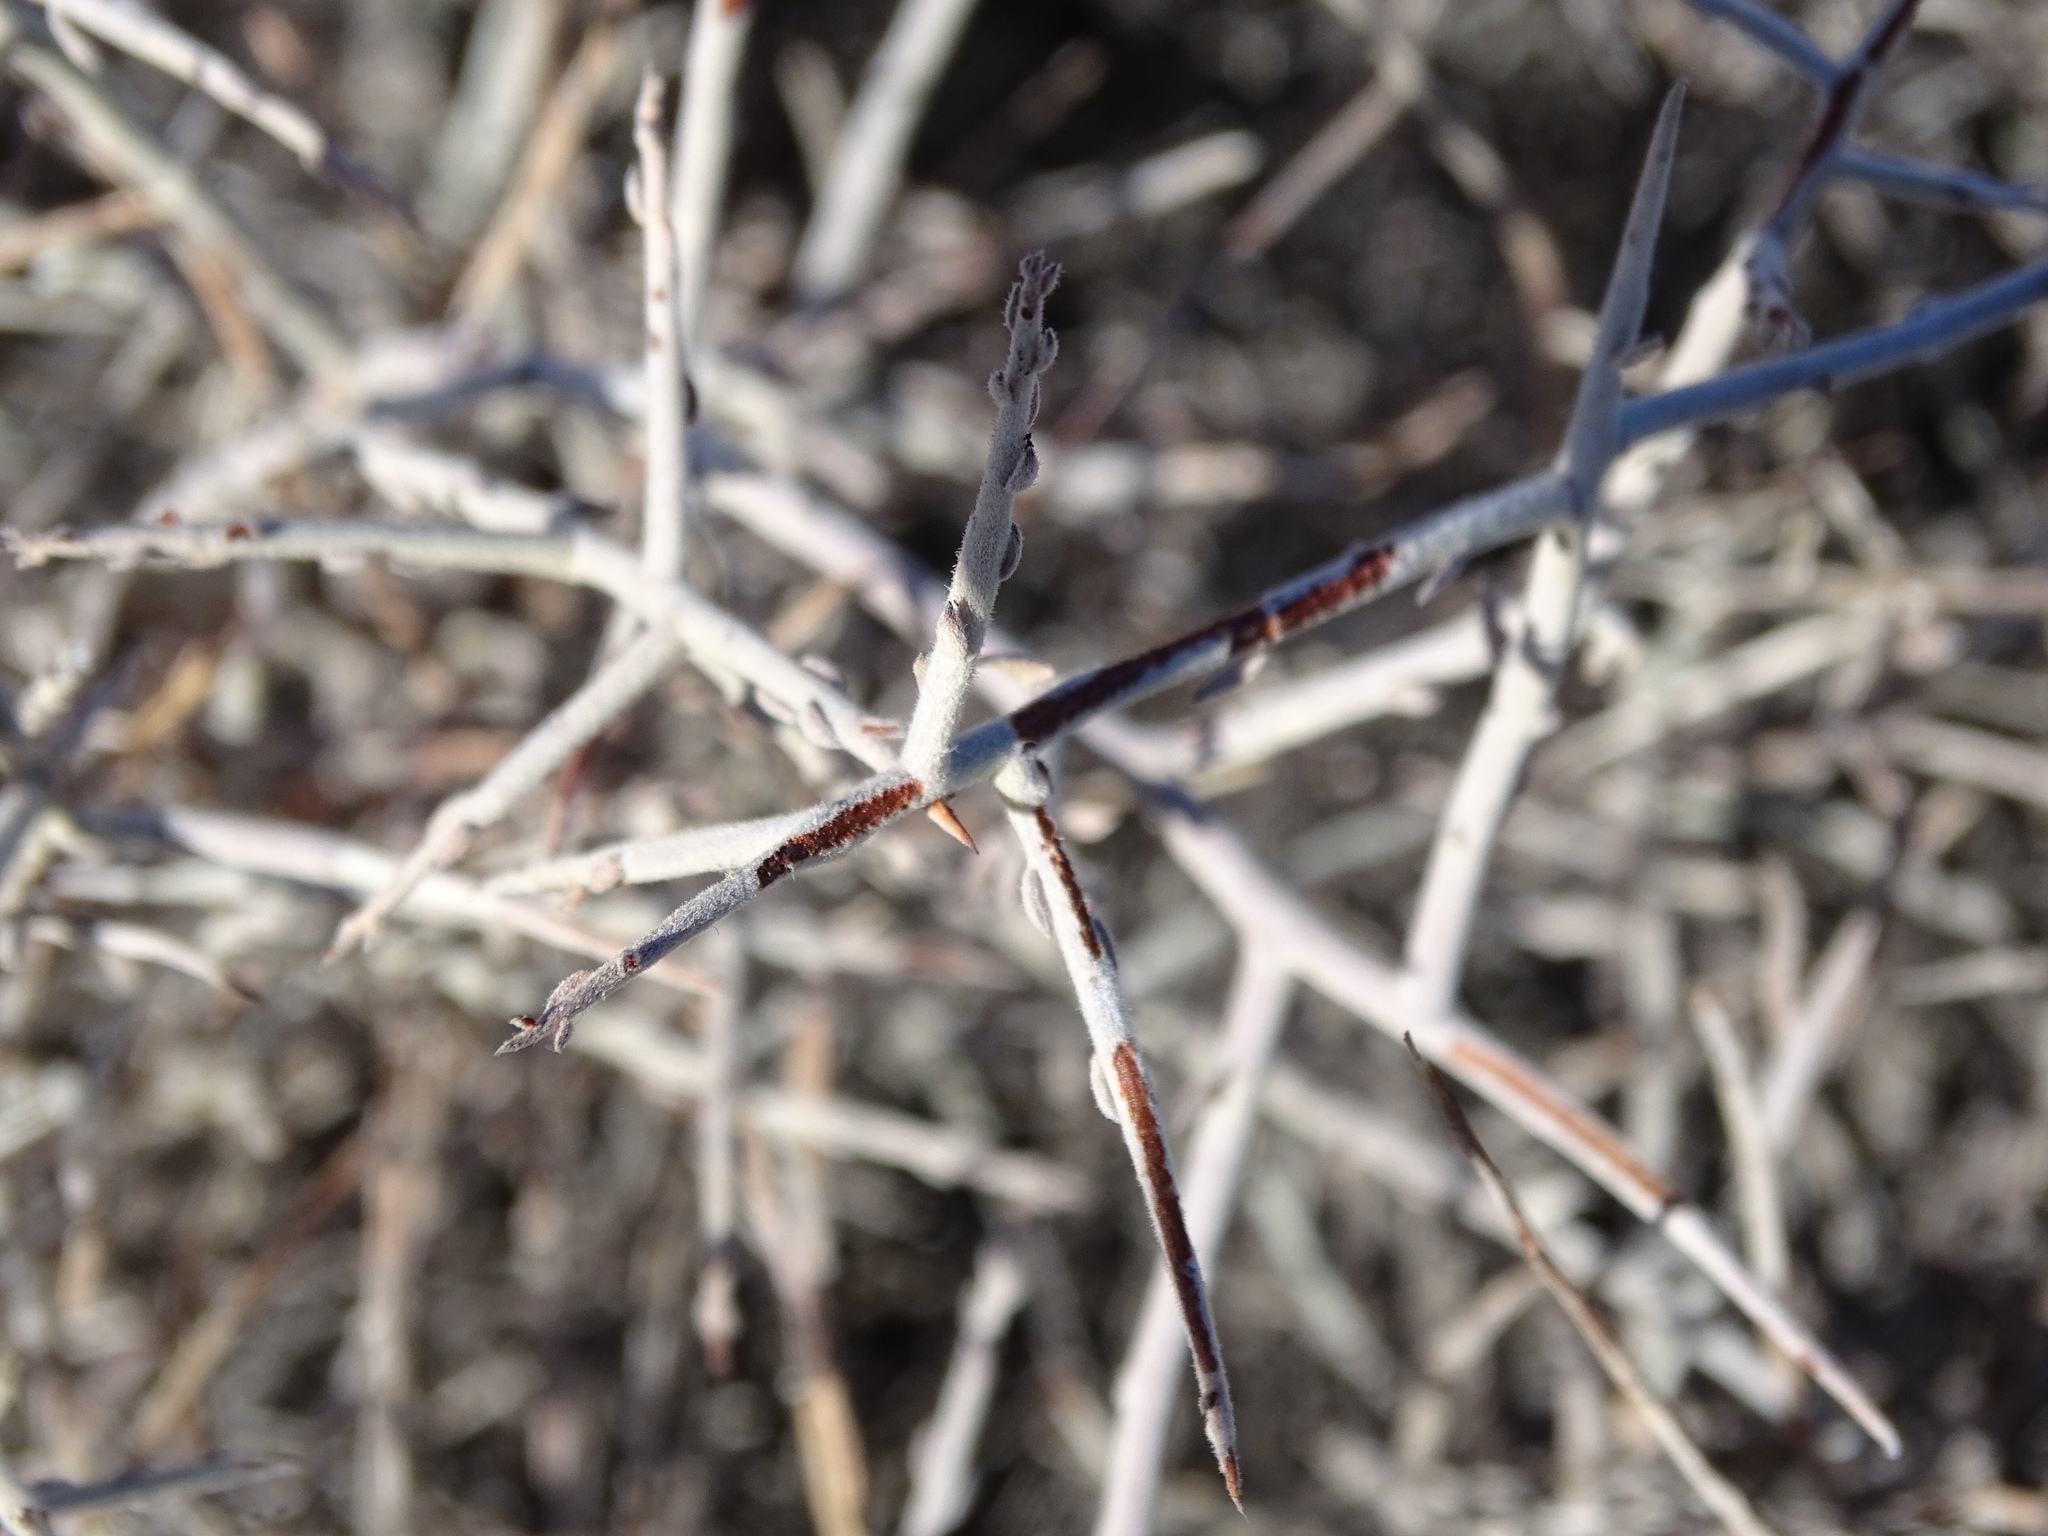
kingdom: Plantae
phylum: Tracheophyta
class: Magnoliopsida
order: Zygophyllales
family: Krameriaceae
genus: Krameria
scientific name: Krameria bicolor
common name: White ratany
